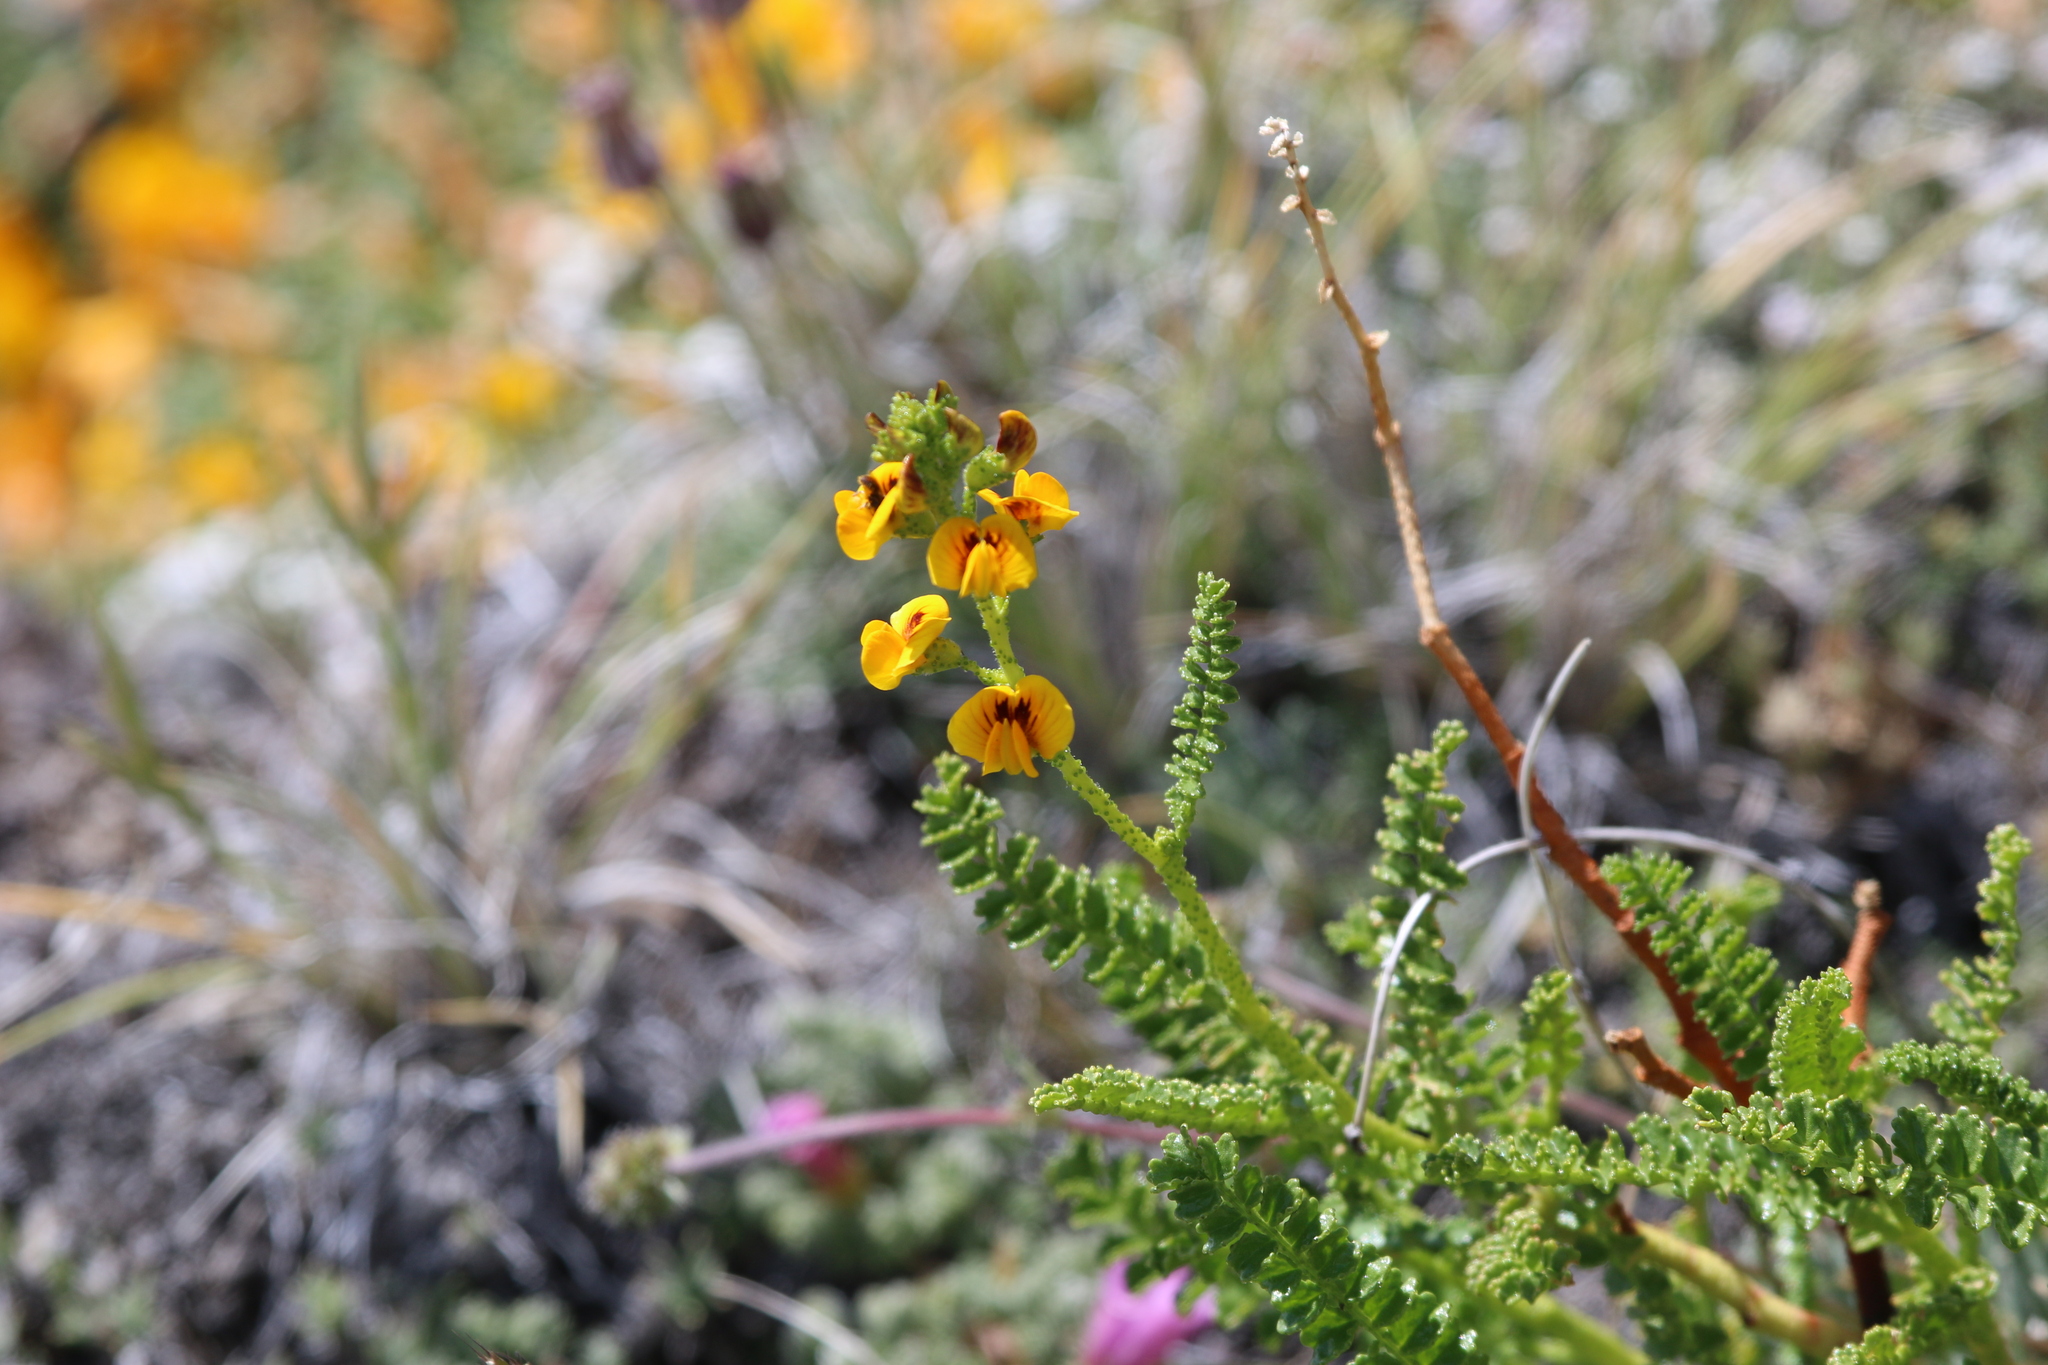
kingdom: Plantae
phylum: Tracheophyta
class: Magnoliopsida
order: Fabales
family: Fabaceae
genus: Adesmia
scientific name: Adesmia boronioides
